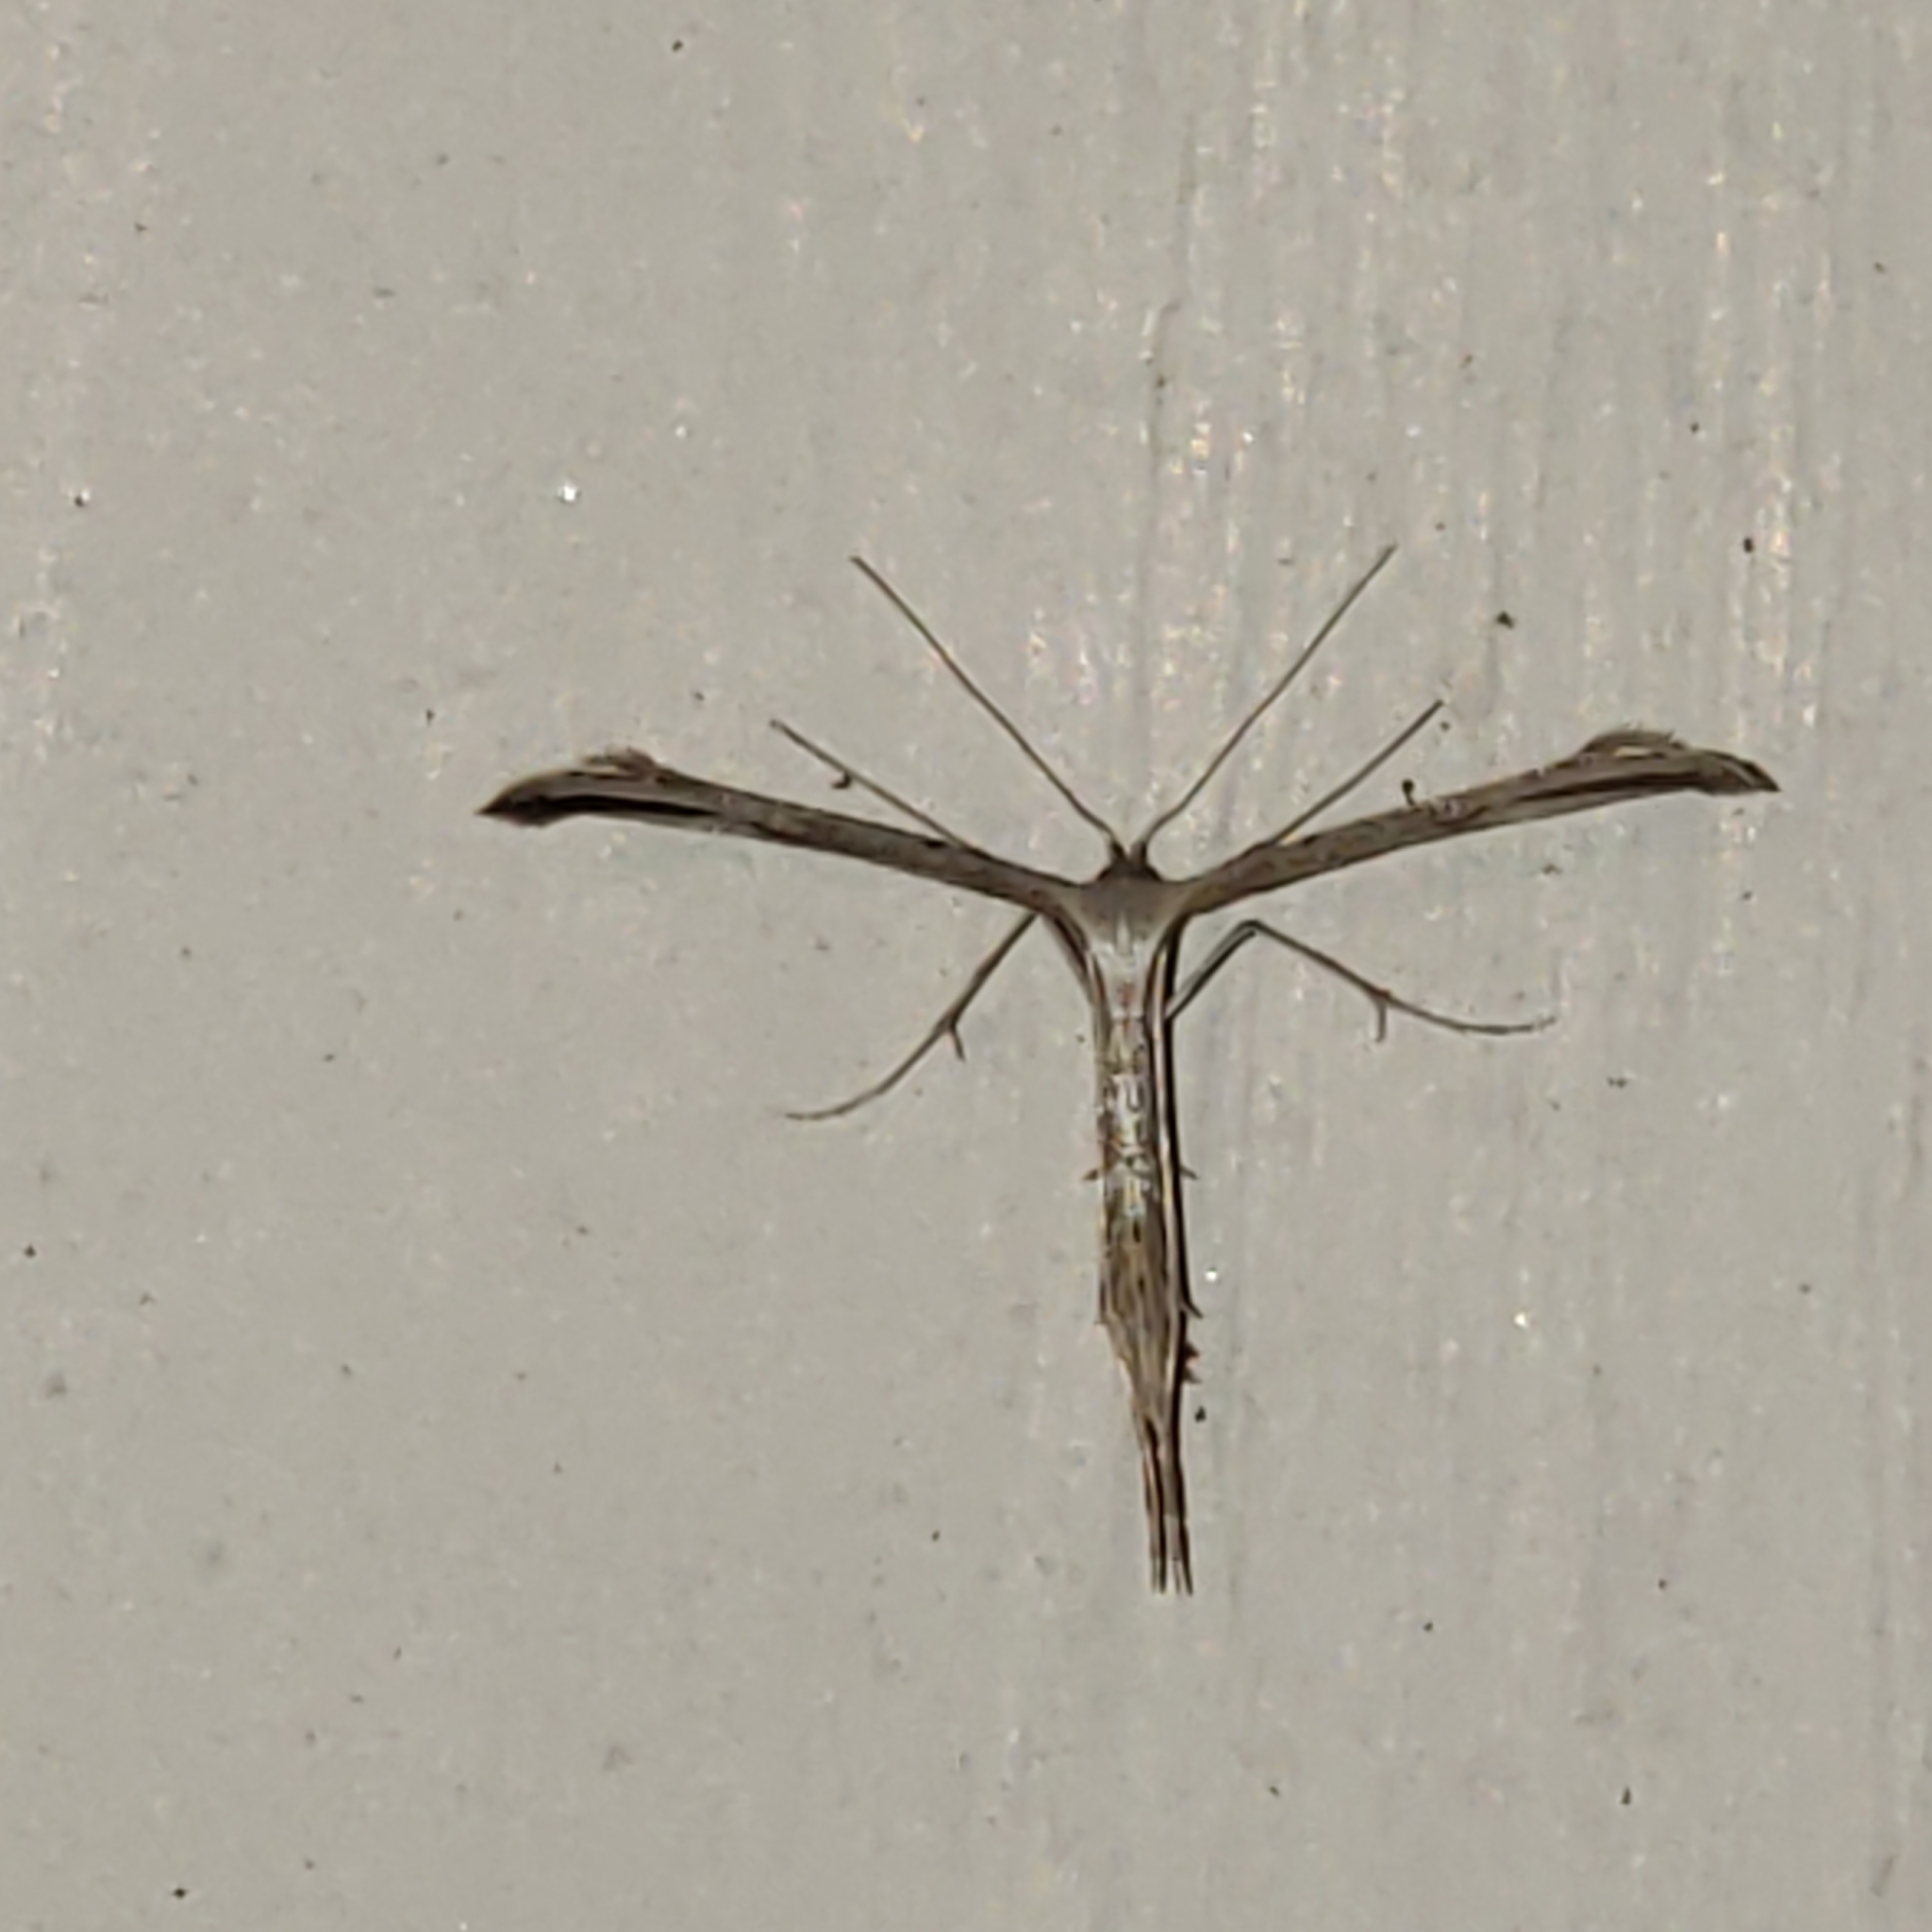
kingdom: Animalia
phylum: Arthropoda
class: Insecta
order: Lepidoptera
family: Pterophoridae
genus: Emmelina
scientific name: Emmelina monodactyla
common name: Common plume
